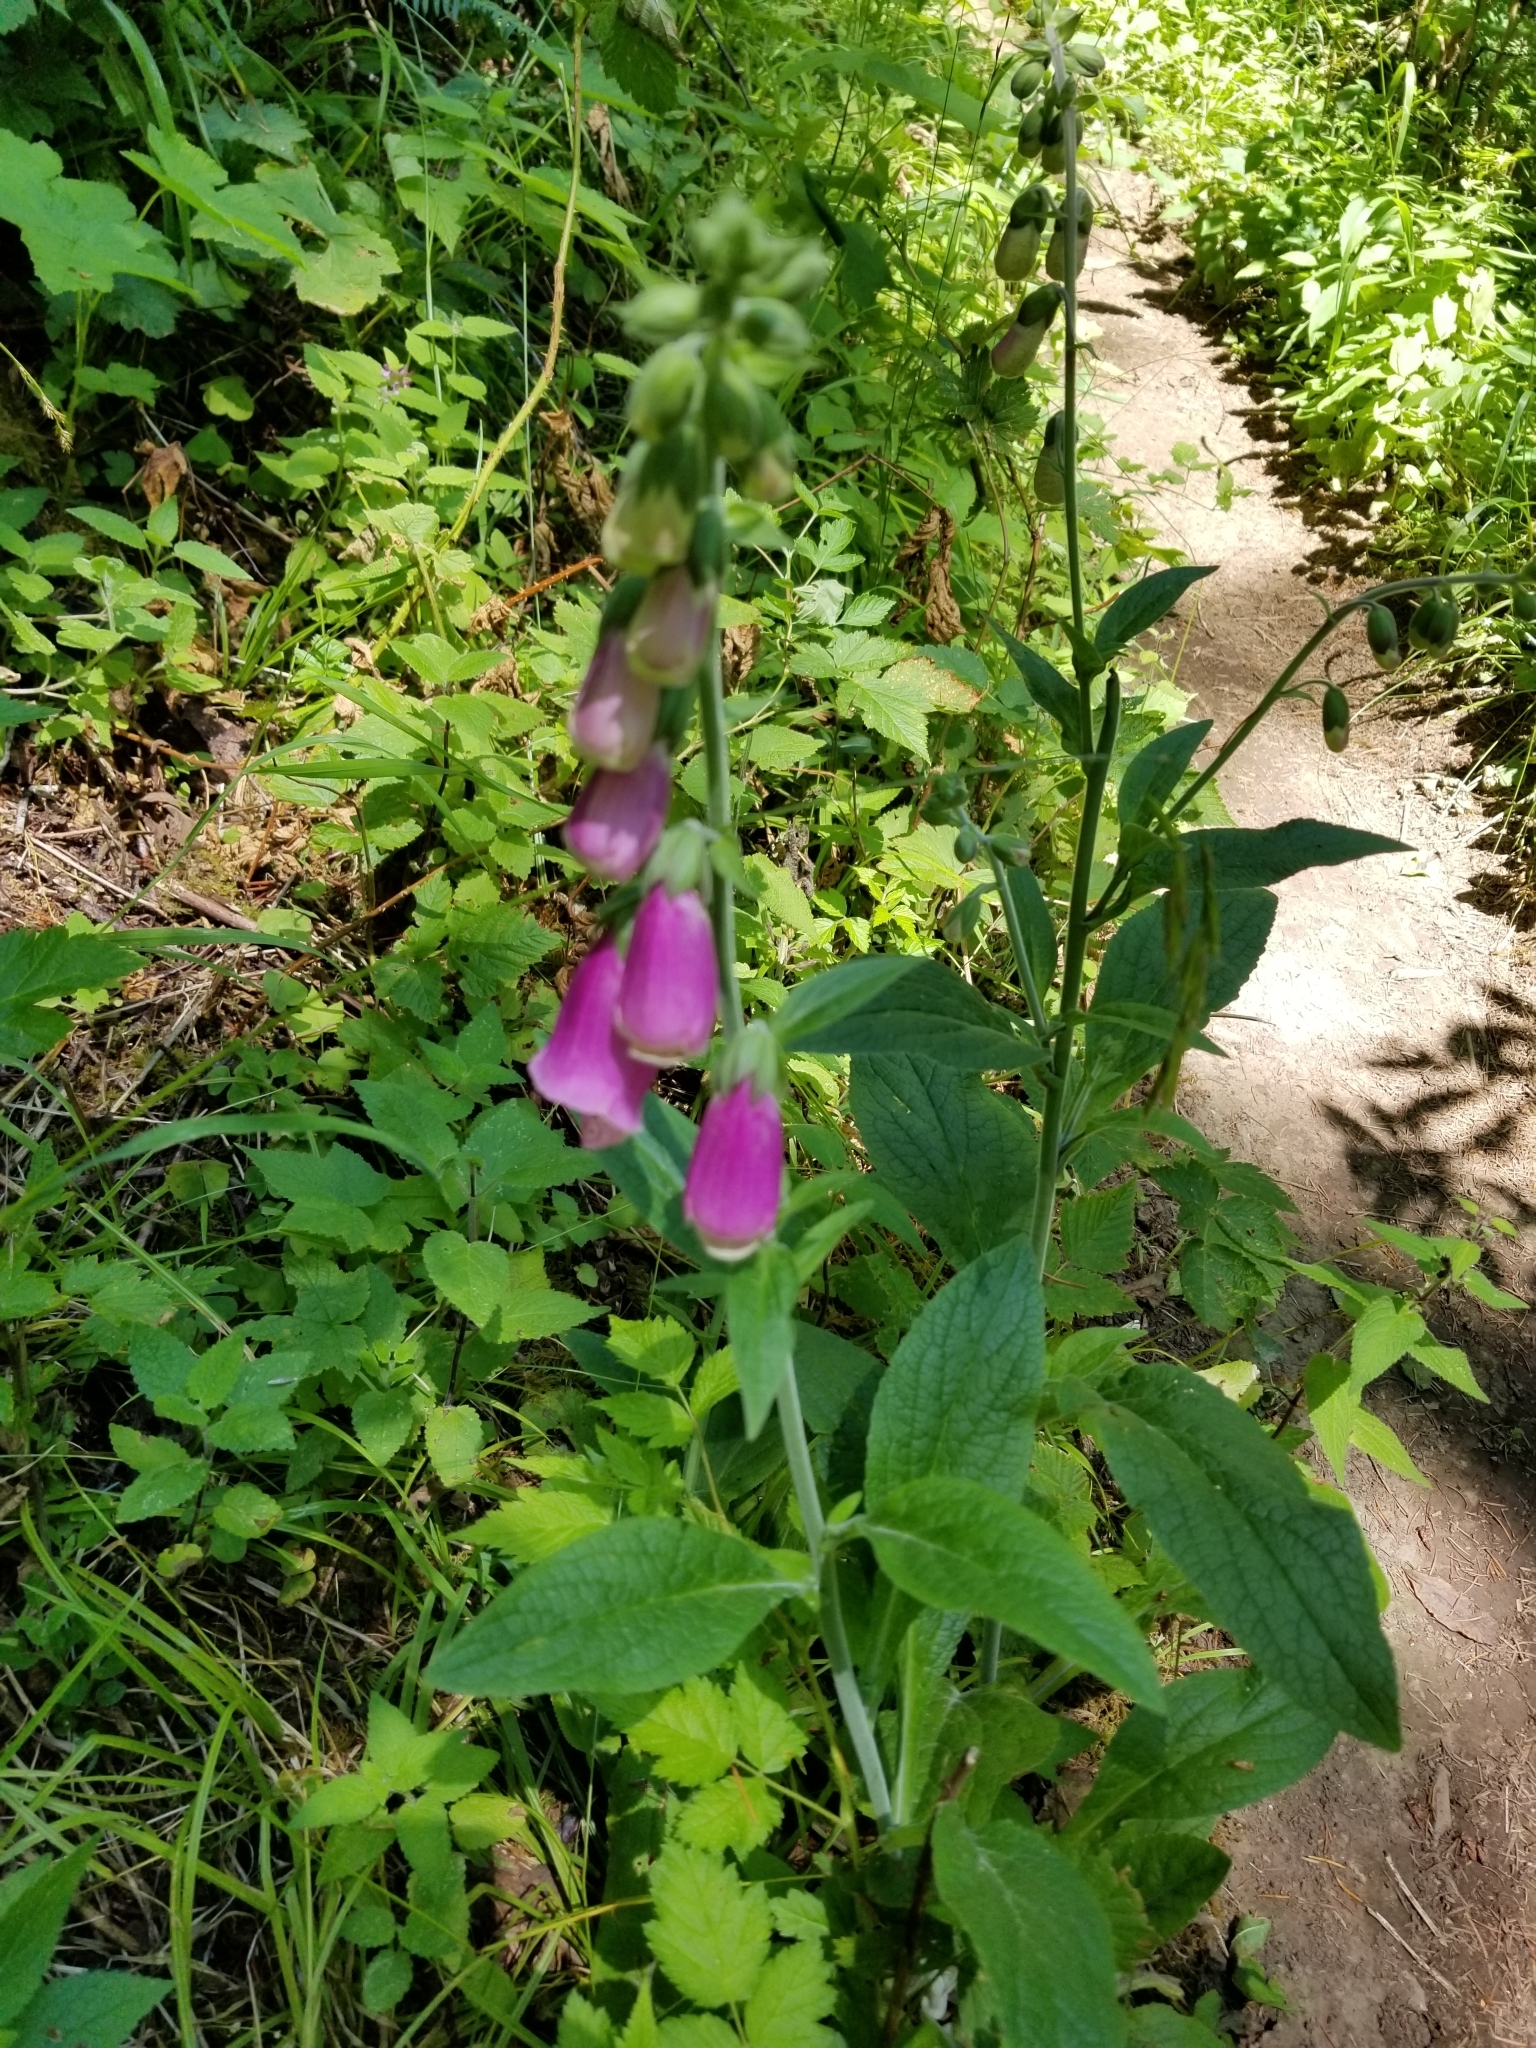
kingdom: Plantae
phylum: Tracheophyta
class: Magnoliopsida
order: Lamiales
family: Plantaginaceae
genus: Digitalis
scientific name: Digitalis purpurea
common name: Foxglove
